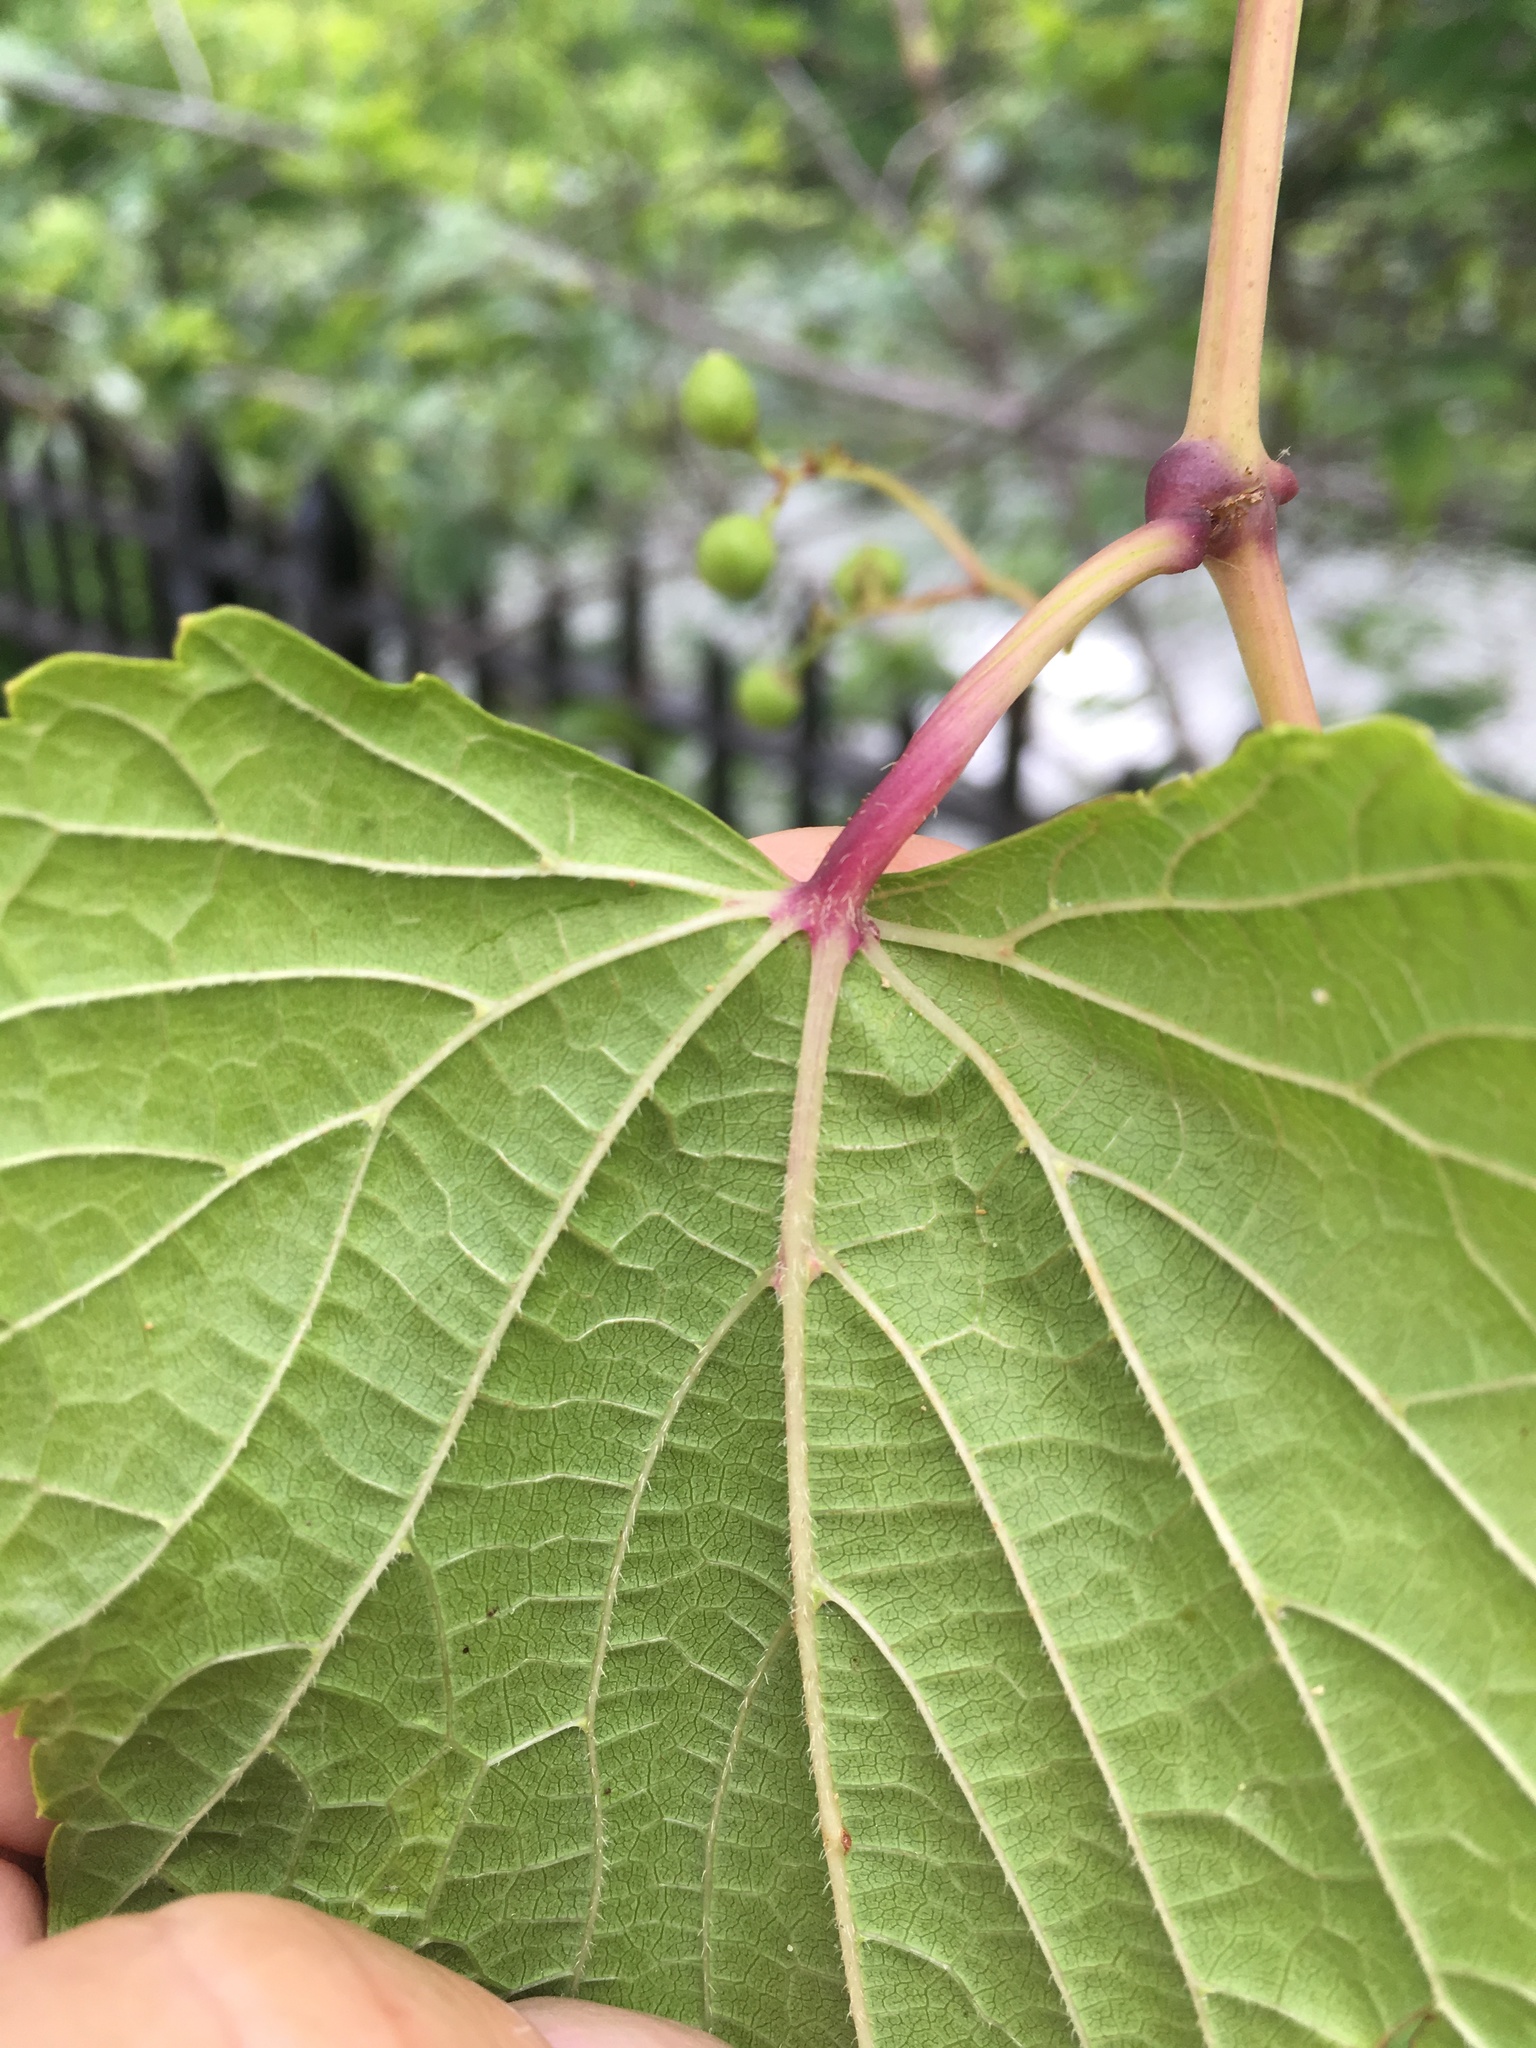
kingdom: Plantae
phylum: Tracheophyta
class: Magnoliopsida
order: Vitales
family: Vitaceae
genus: Ampelopsis
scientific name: Ampelopsis glandulosa
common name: Amur peppervine
